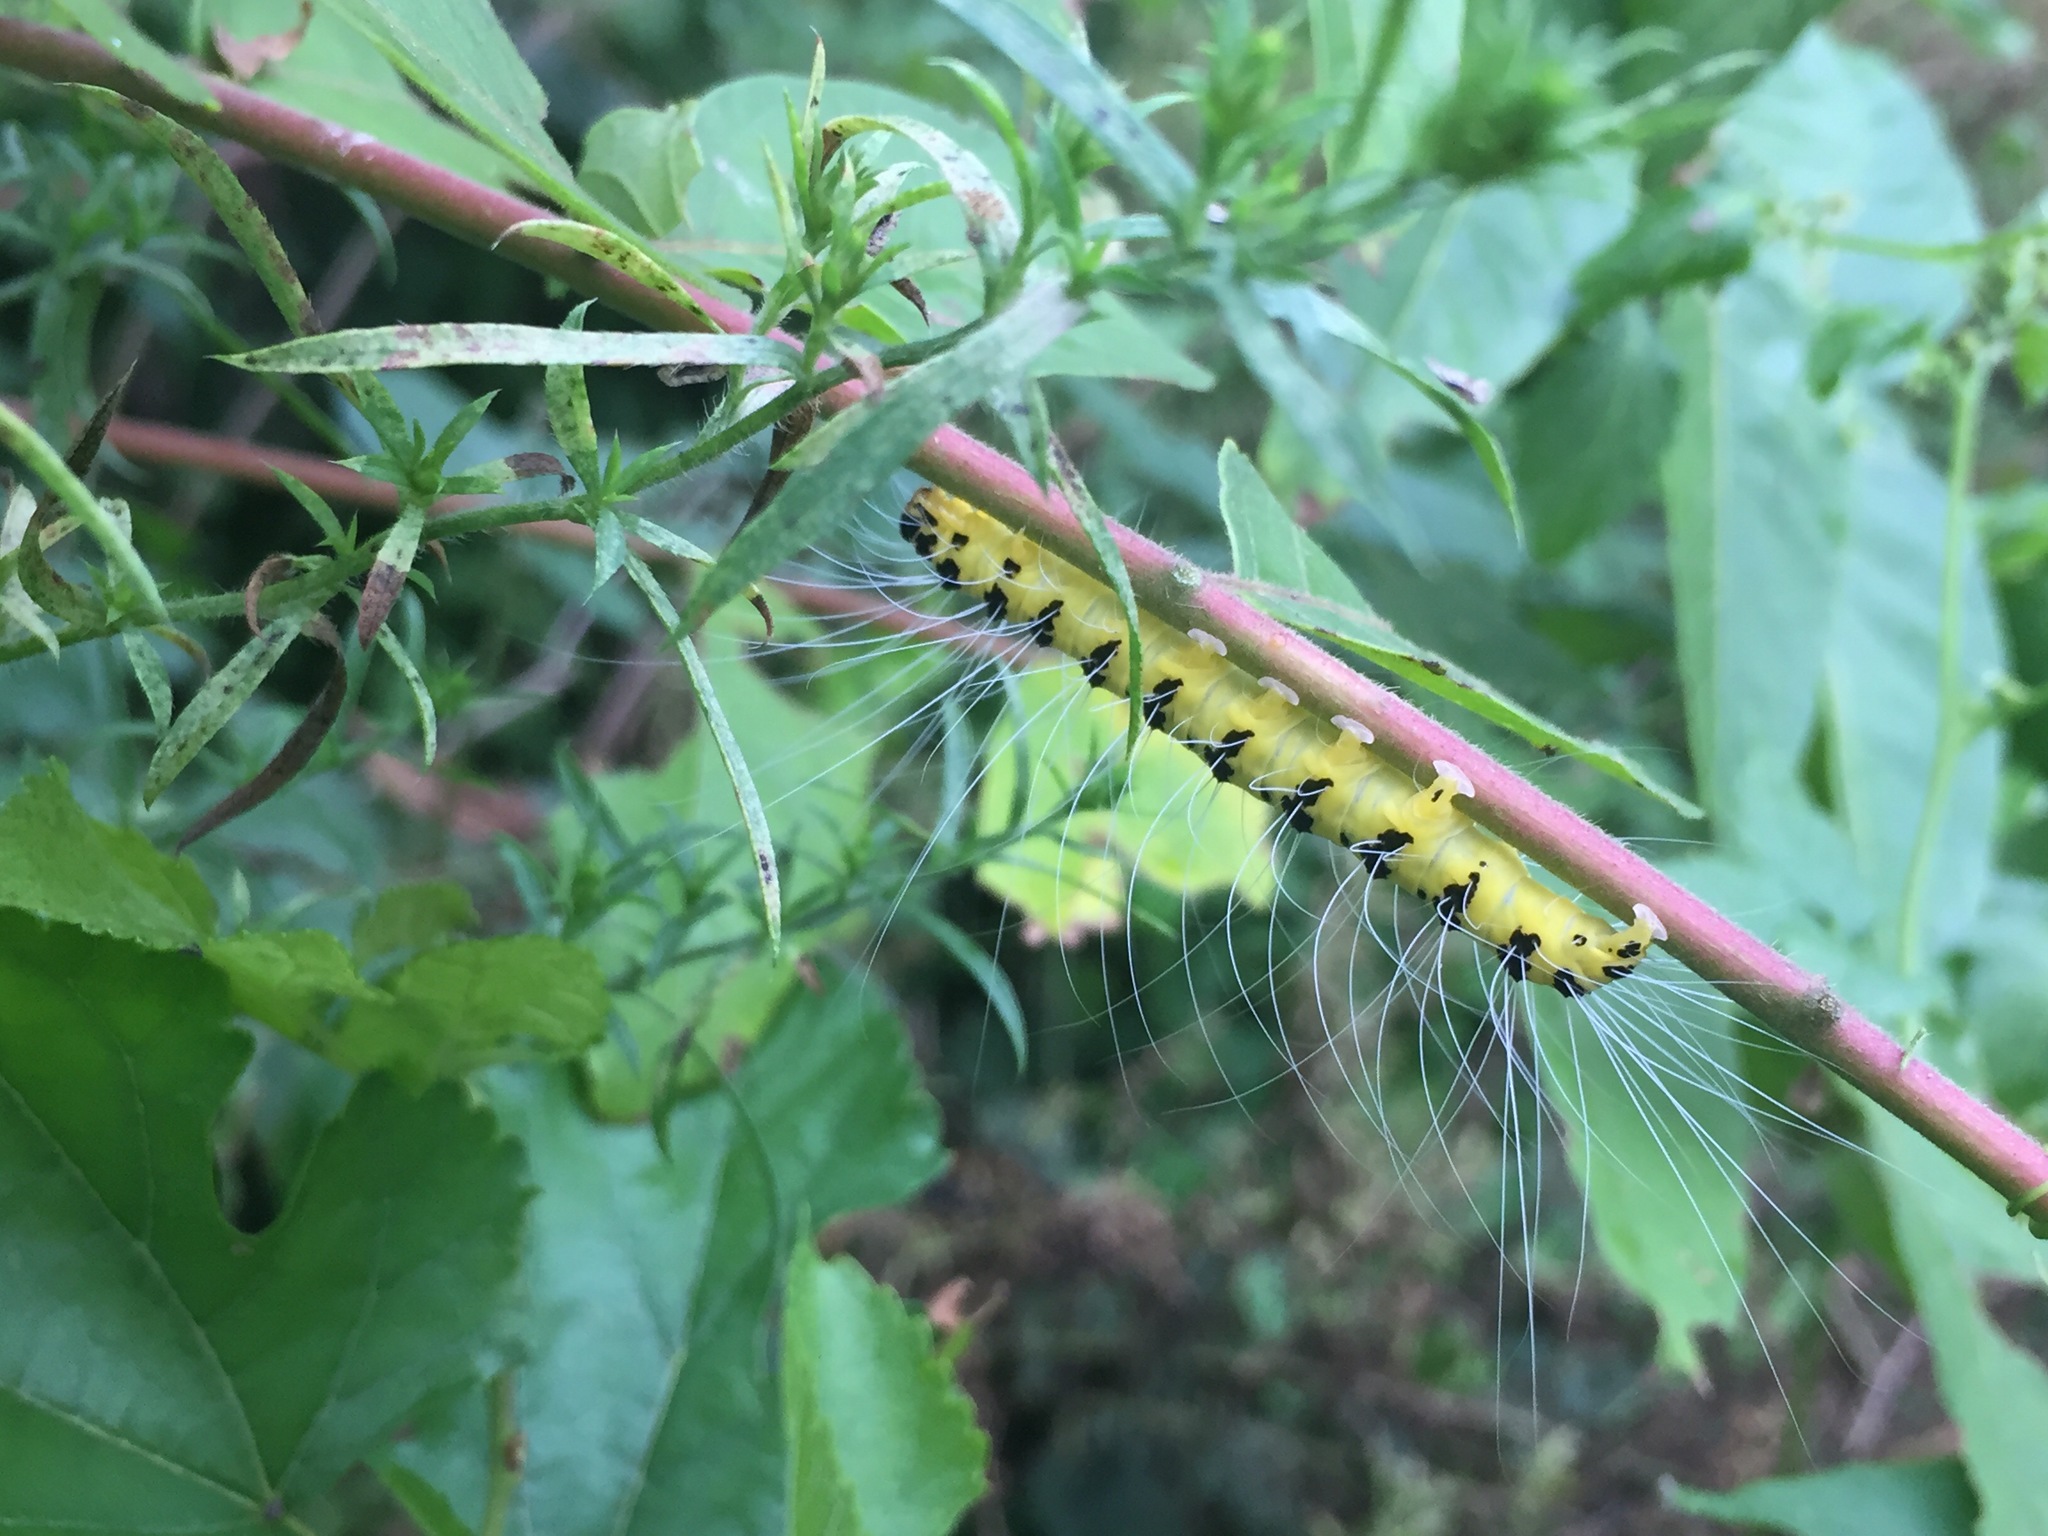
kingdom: Animalia
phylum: Arthropoda
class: Insecta
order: Lepidoptera
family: Nolidae
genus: Eligma
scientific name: Eligma narcissus
